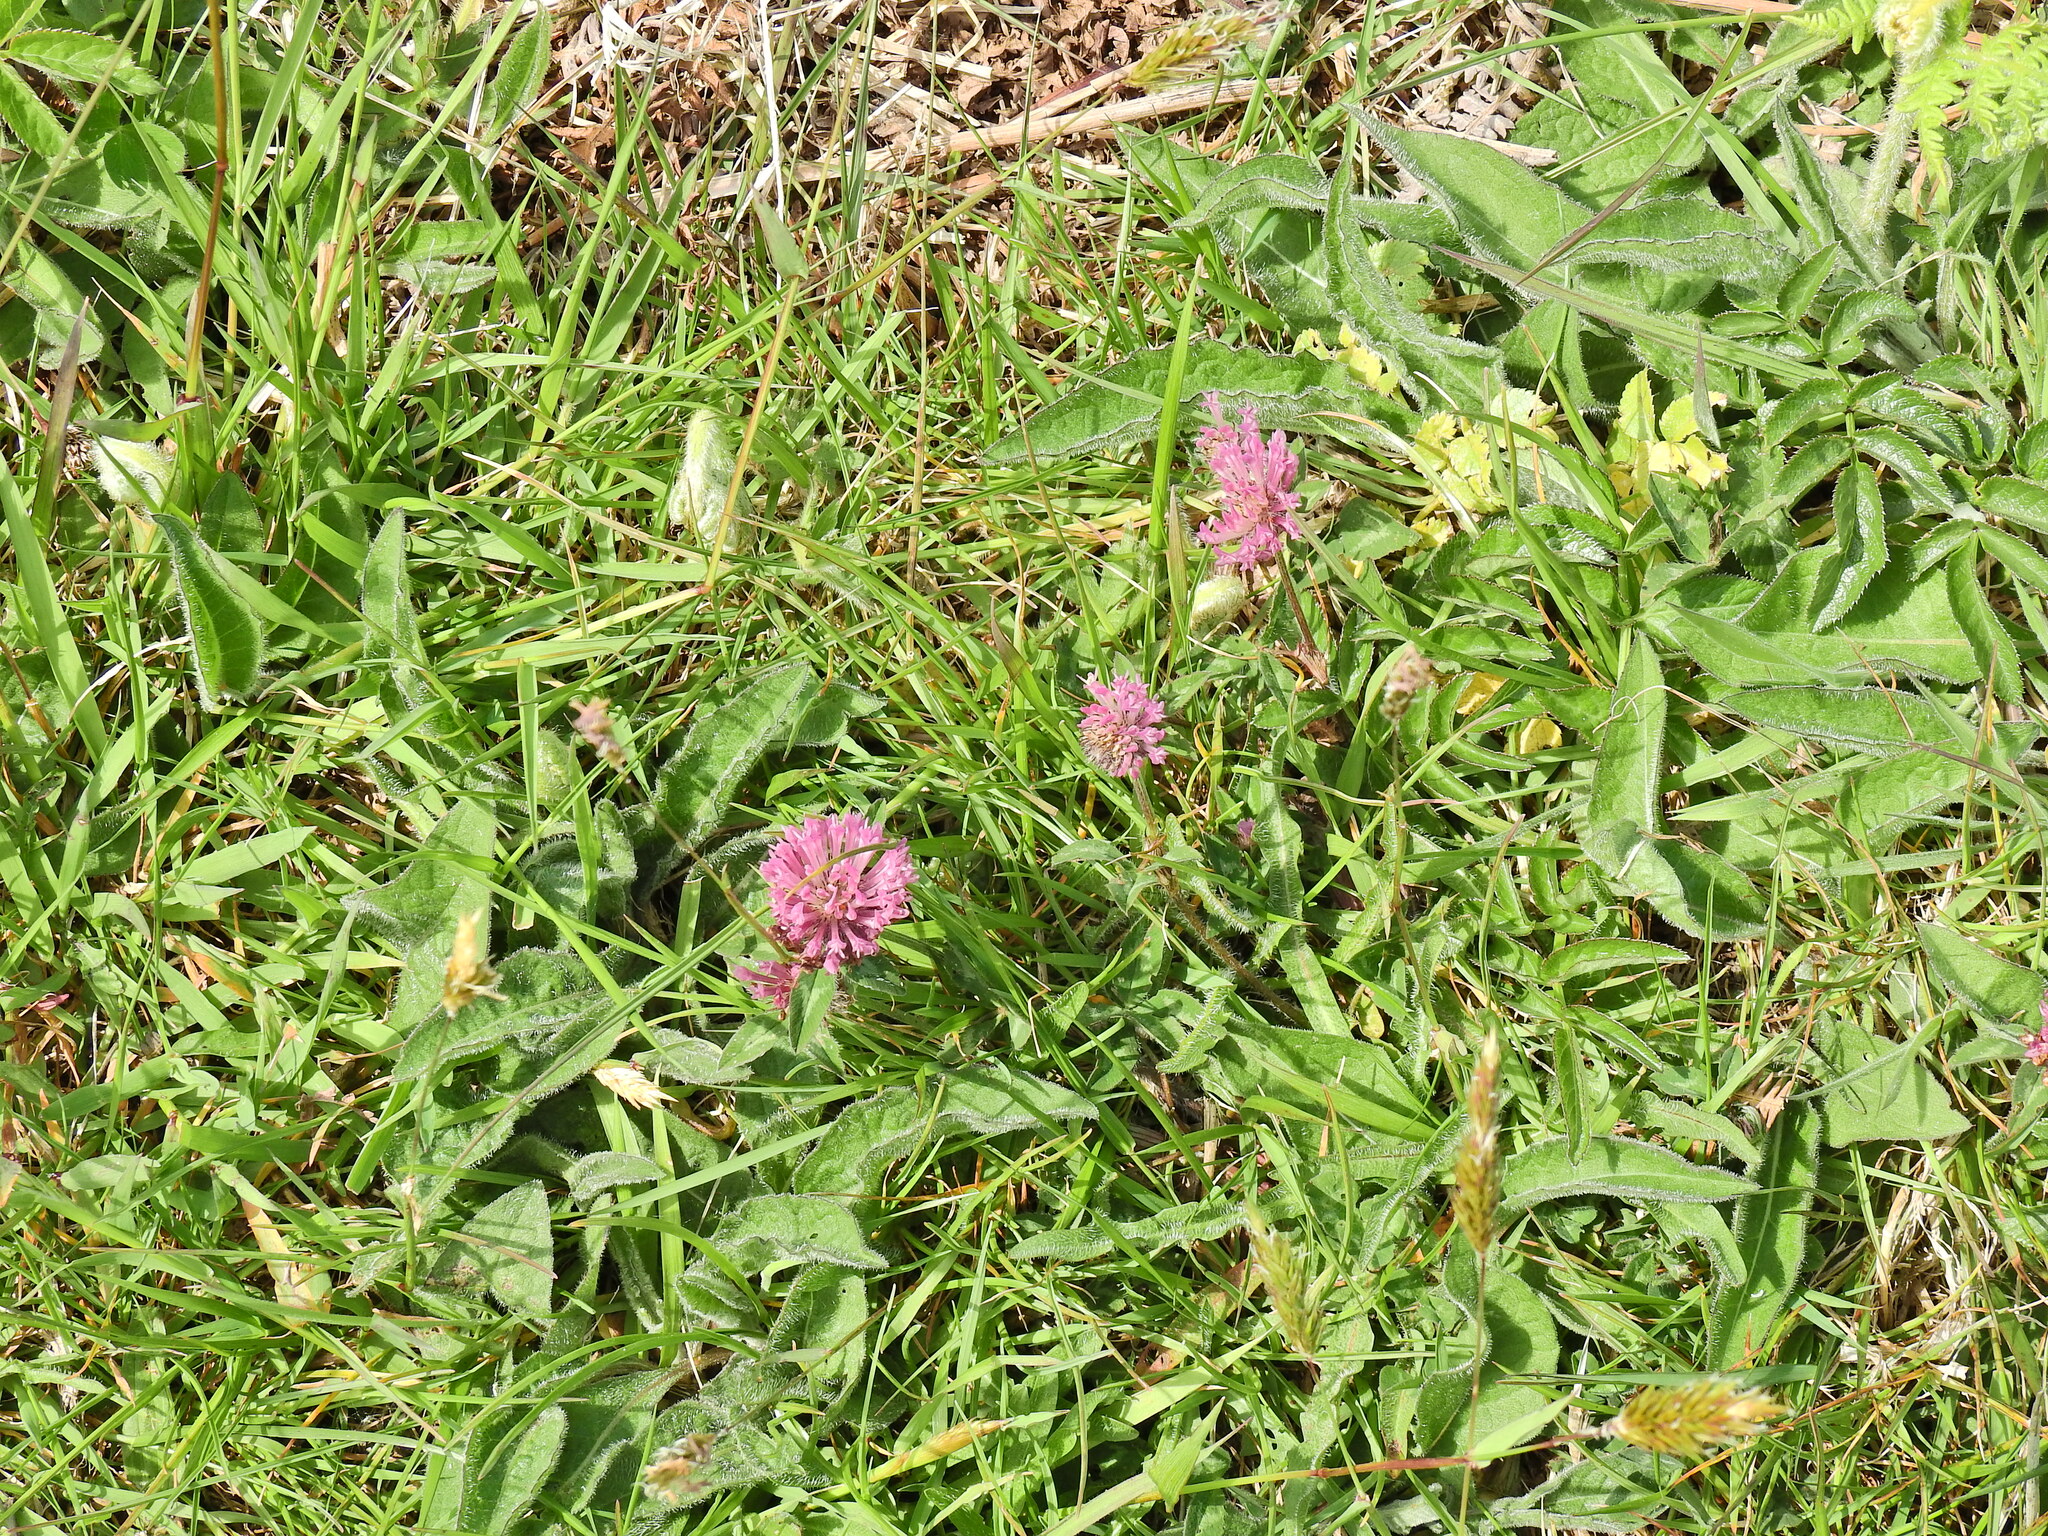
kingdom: Plantae
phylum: Tracheophyta
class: Magnoliopsida
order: Fabales
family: Fabaceae
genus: Trifolium
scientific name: Trifolium pratense
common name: Red clover
